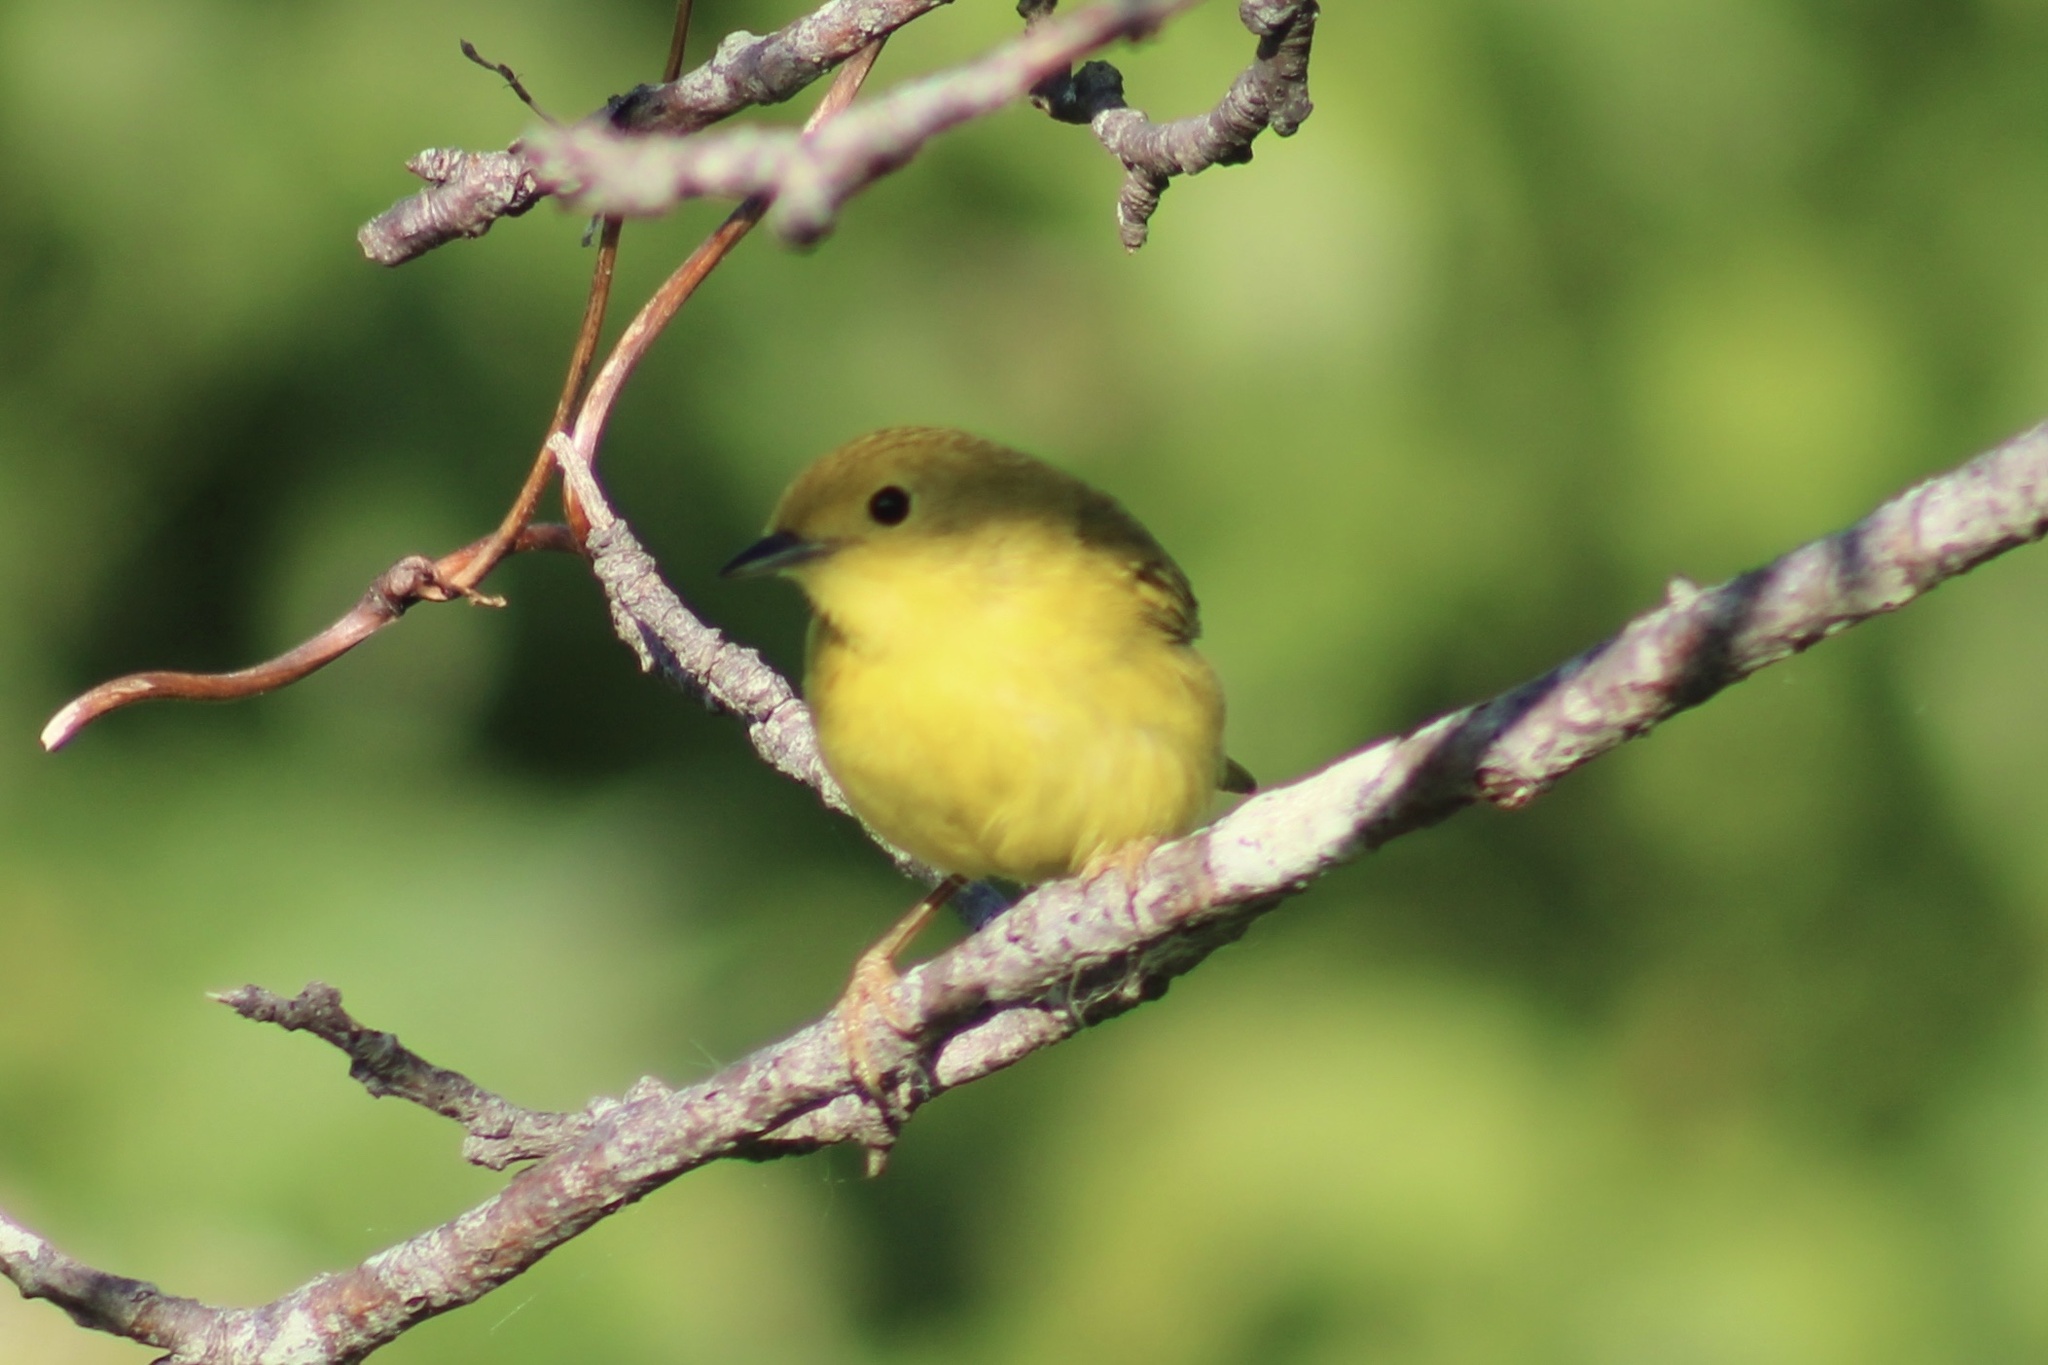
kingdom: Animalia
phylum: Chordata
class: Aves
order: Passeriformes
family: Parulidae
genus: Setophaga
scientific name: Setophaga petechia
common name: Yellow warbler
